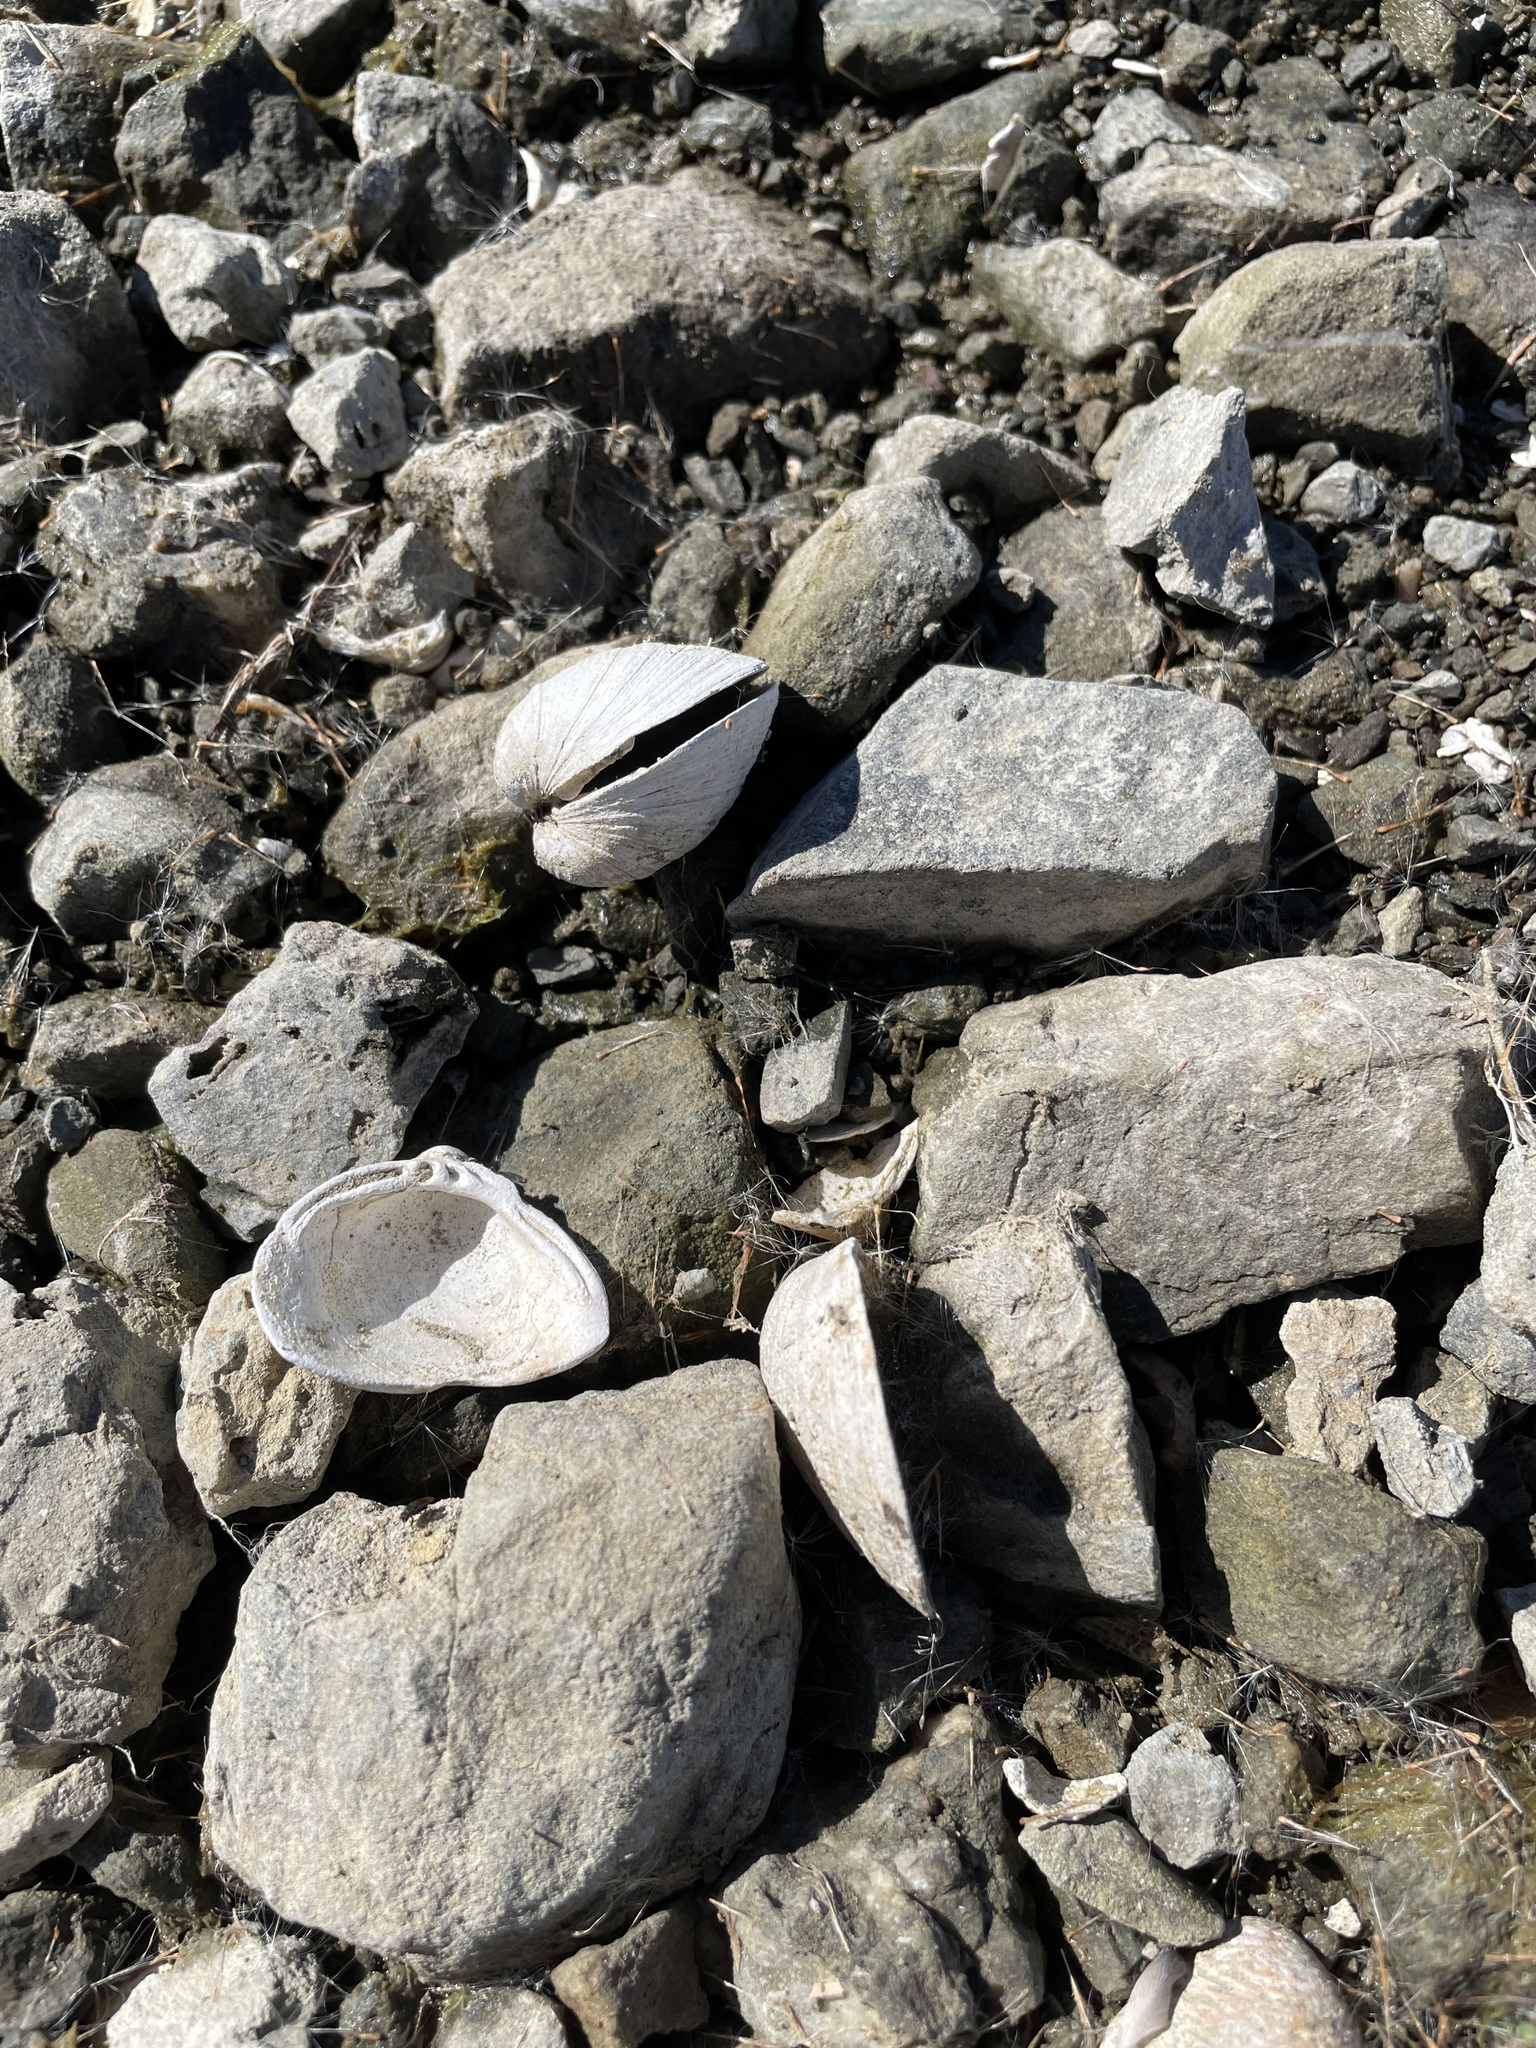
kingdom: Animalia
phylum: Mollusca
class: Bivalvia
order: Venerida
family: Cyrenidae
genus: Corbicula
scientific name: Corbicula fluminea
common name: Asian clam
